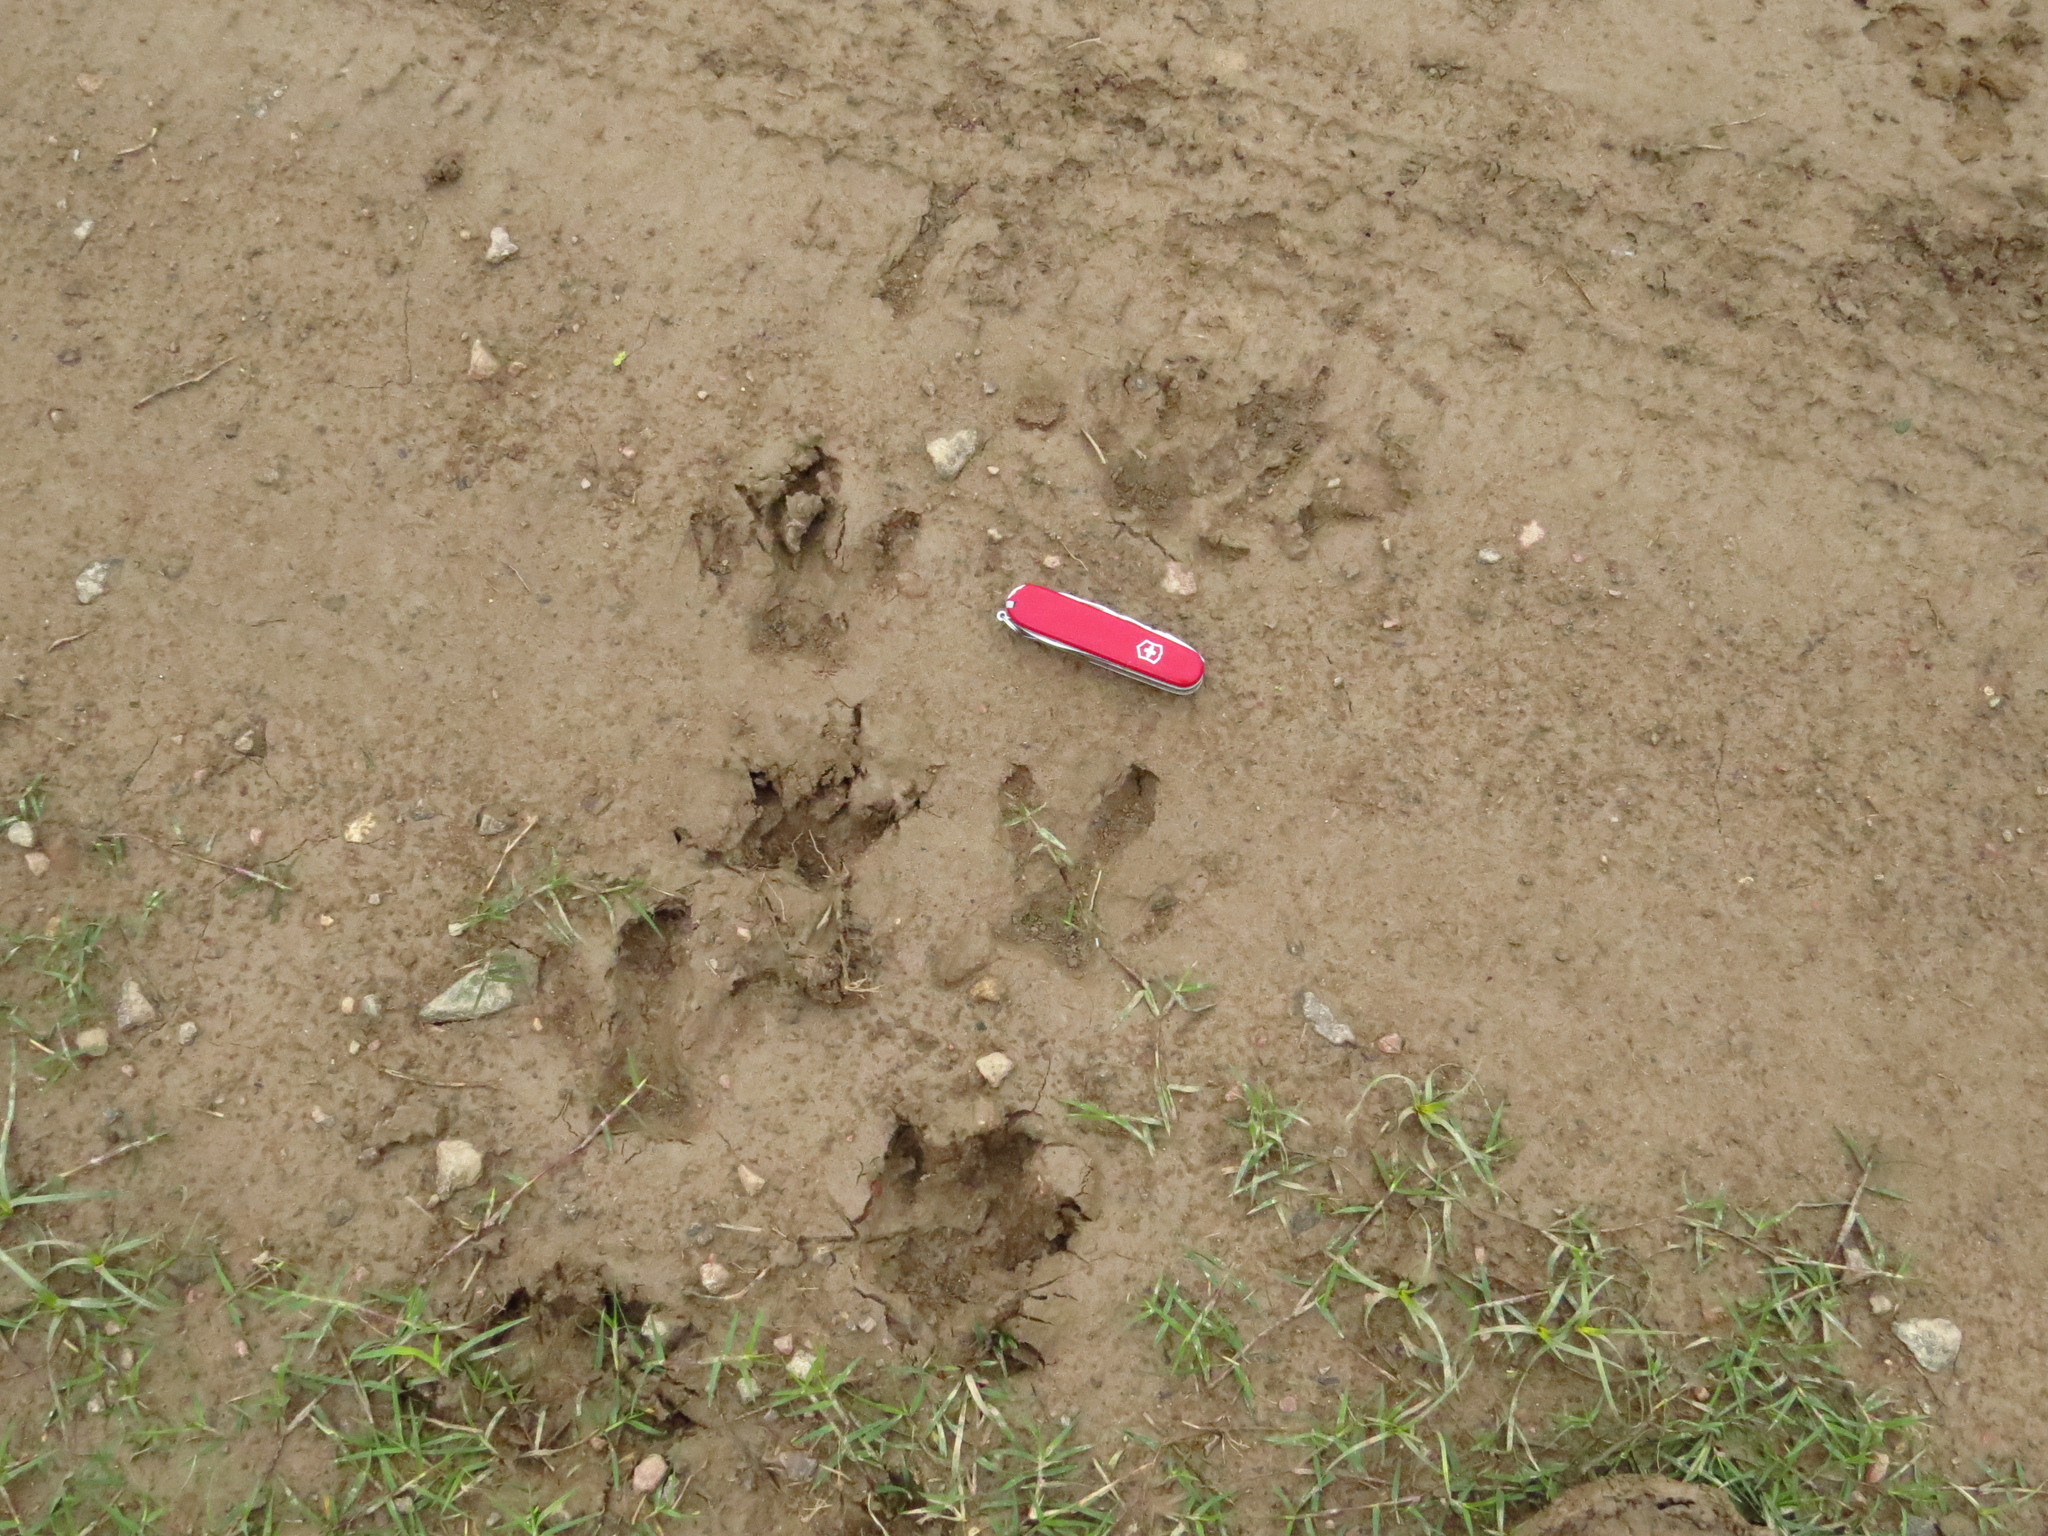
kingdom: Animalia
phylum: Chordata
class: Mammalia
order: Rodentia
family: Caviidae
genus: Hydrochoerus
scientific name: Hydrochoerus hydrochaeris
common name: Capybara
